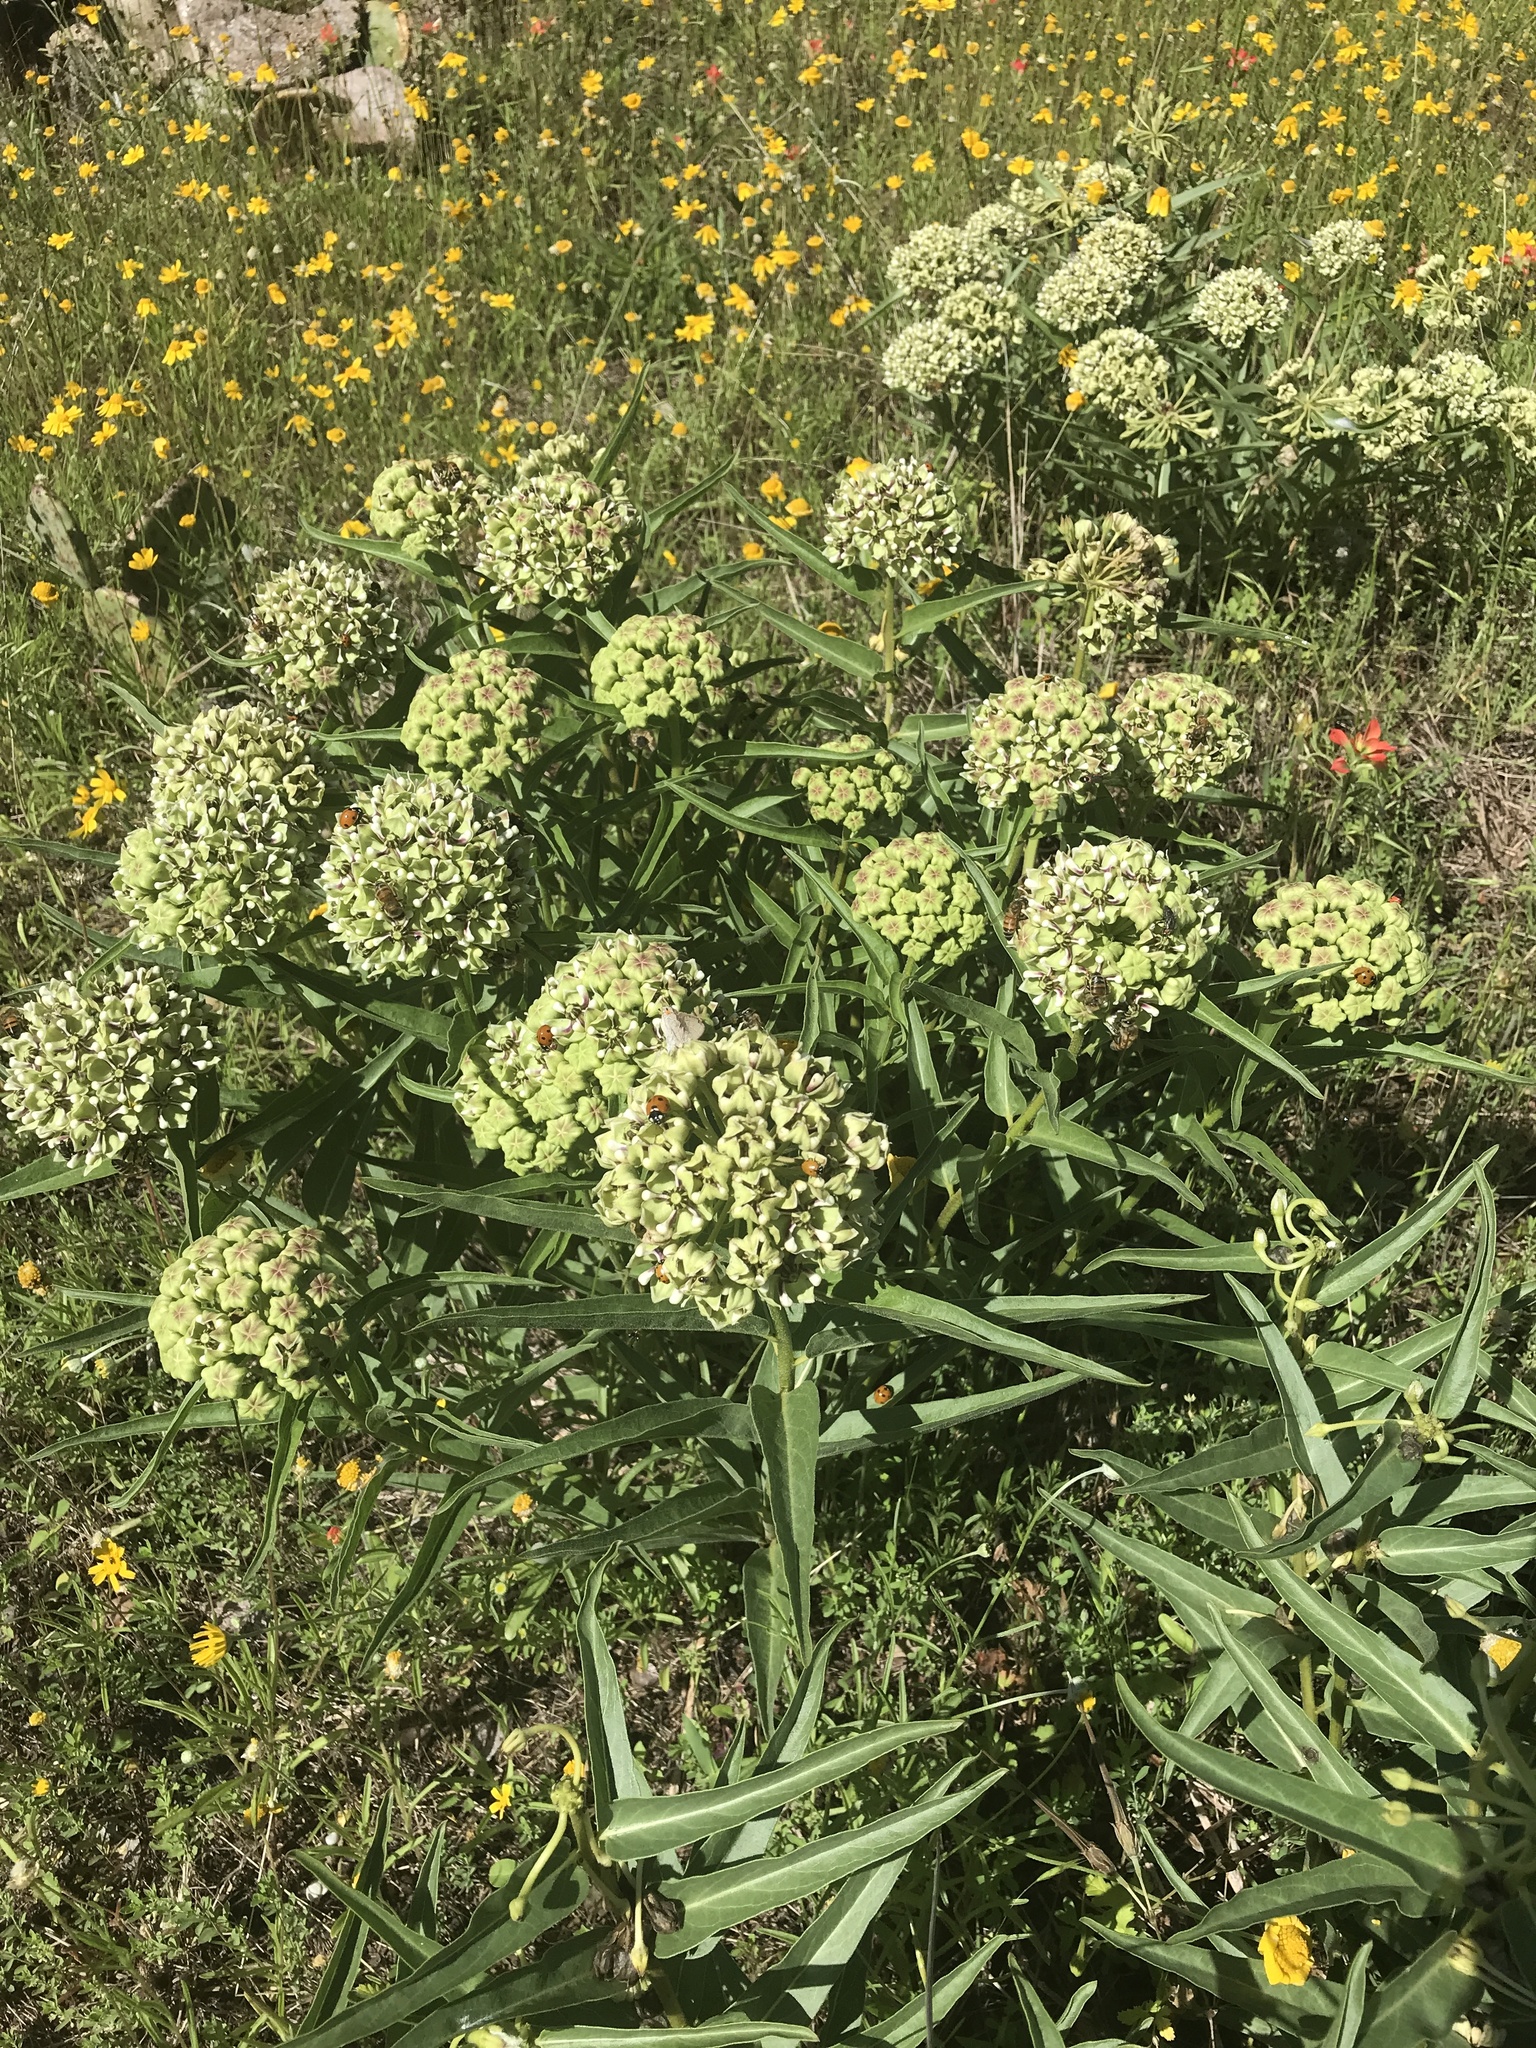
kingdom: Plantae
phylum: Tracheophyta
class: Magnoliopsida
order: Gentianales
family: Apocynaceae
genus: Asclepias
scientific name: Asclepias asperula
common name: Antelope horns
